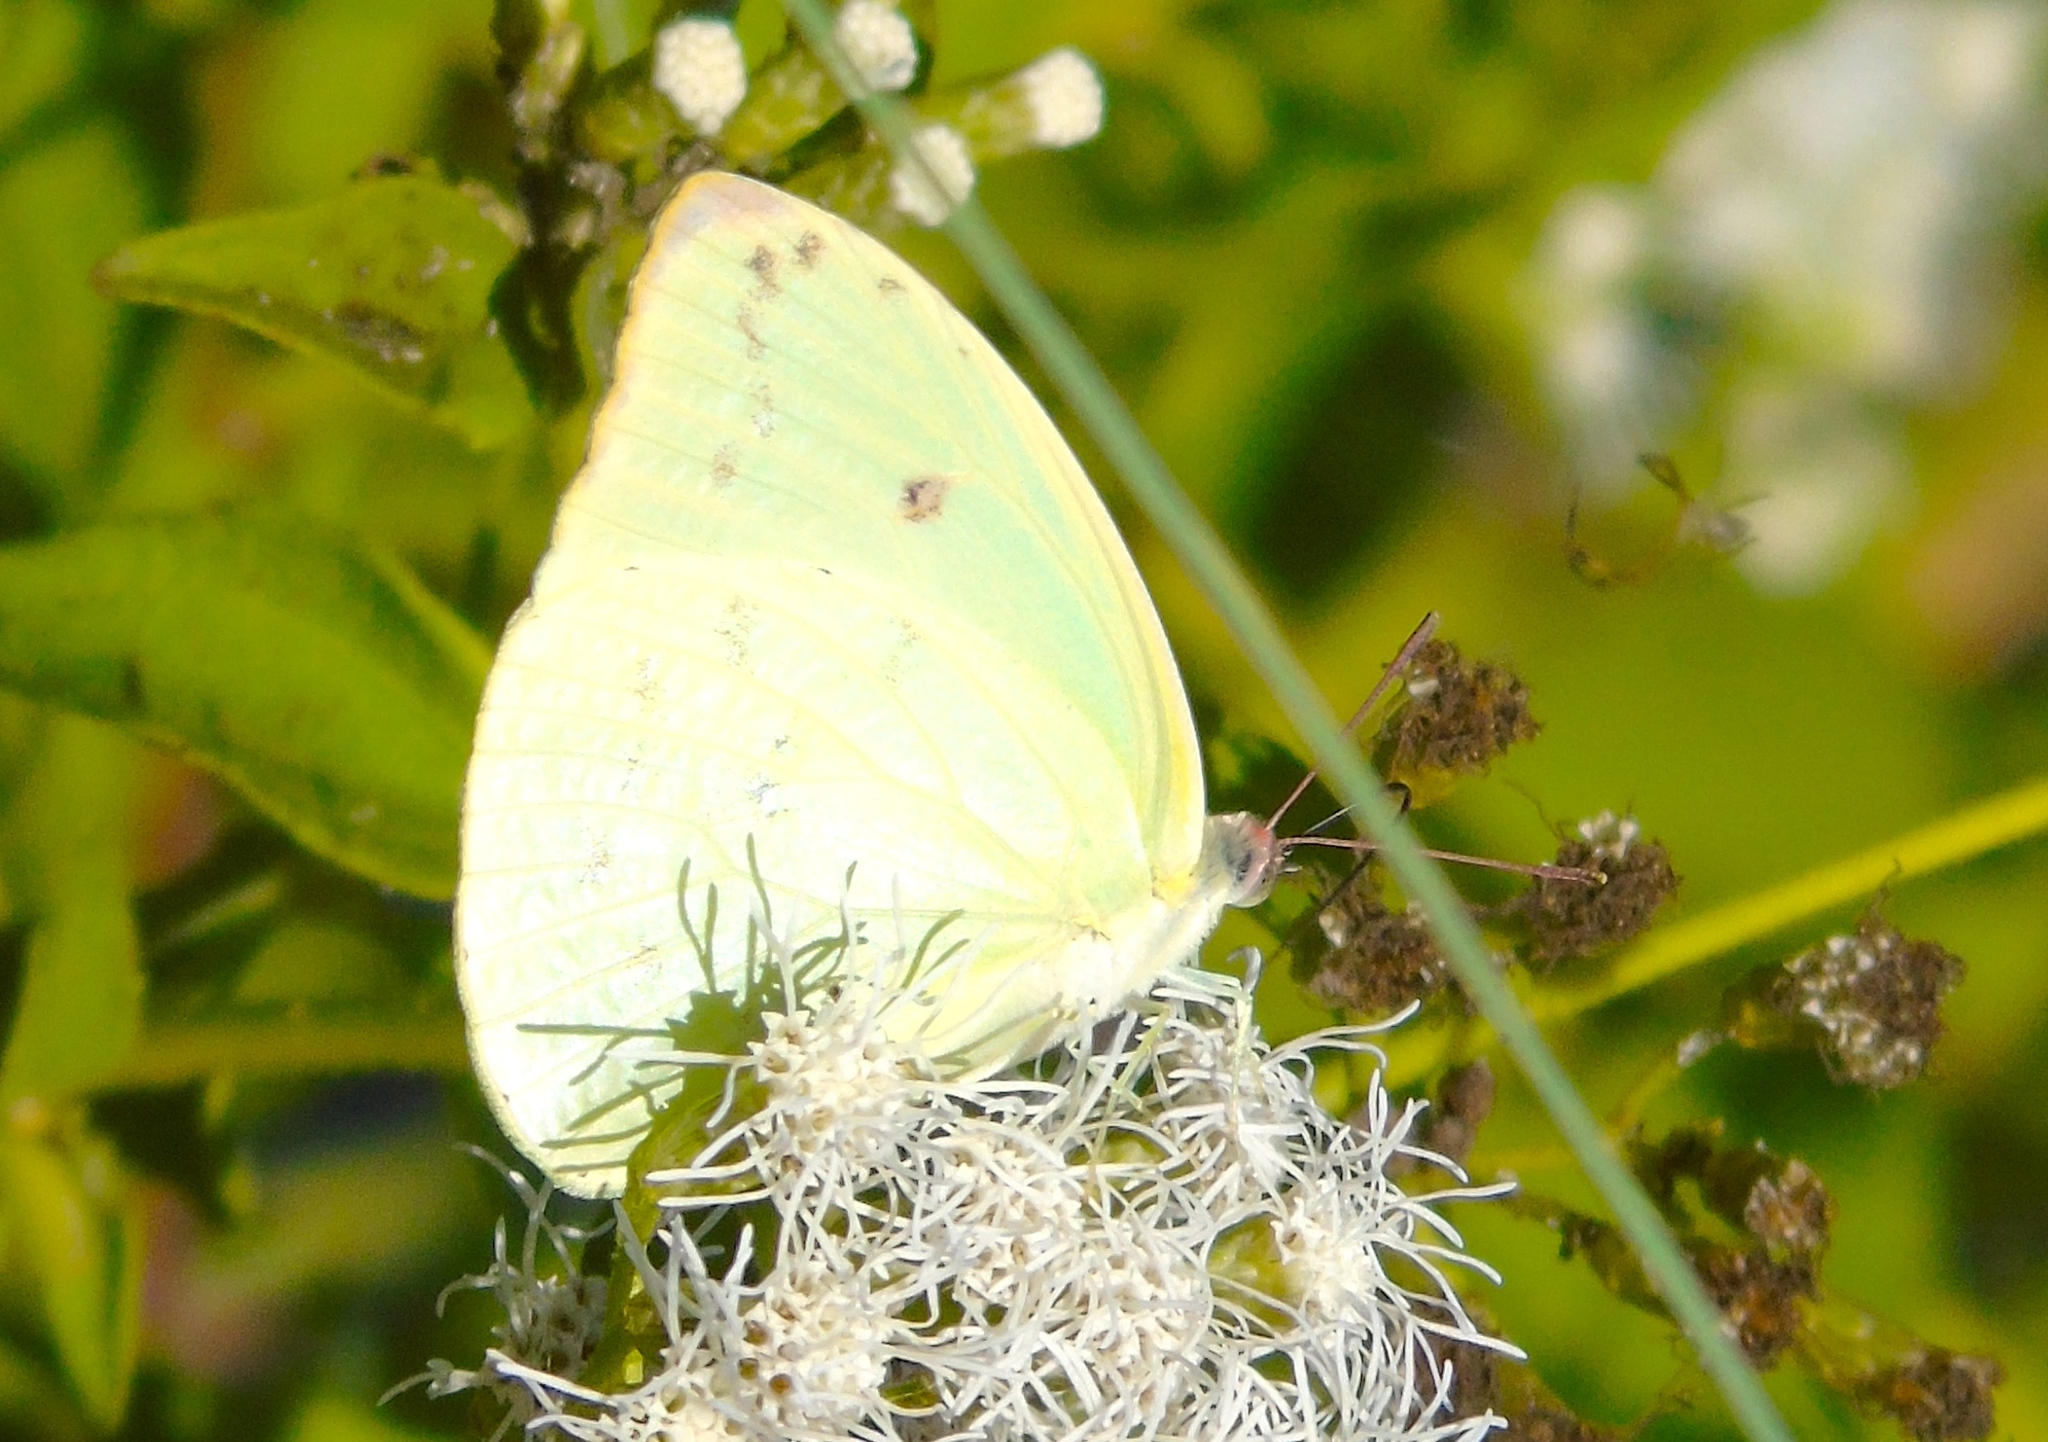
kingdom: Animalia
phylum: Arthropoda
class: Insecta
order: Lepidoptera
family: Pieridae
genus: Aphrissa
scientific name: Aphrissa statira
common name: Statira sulphur
